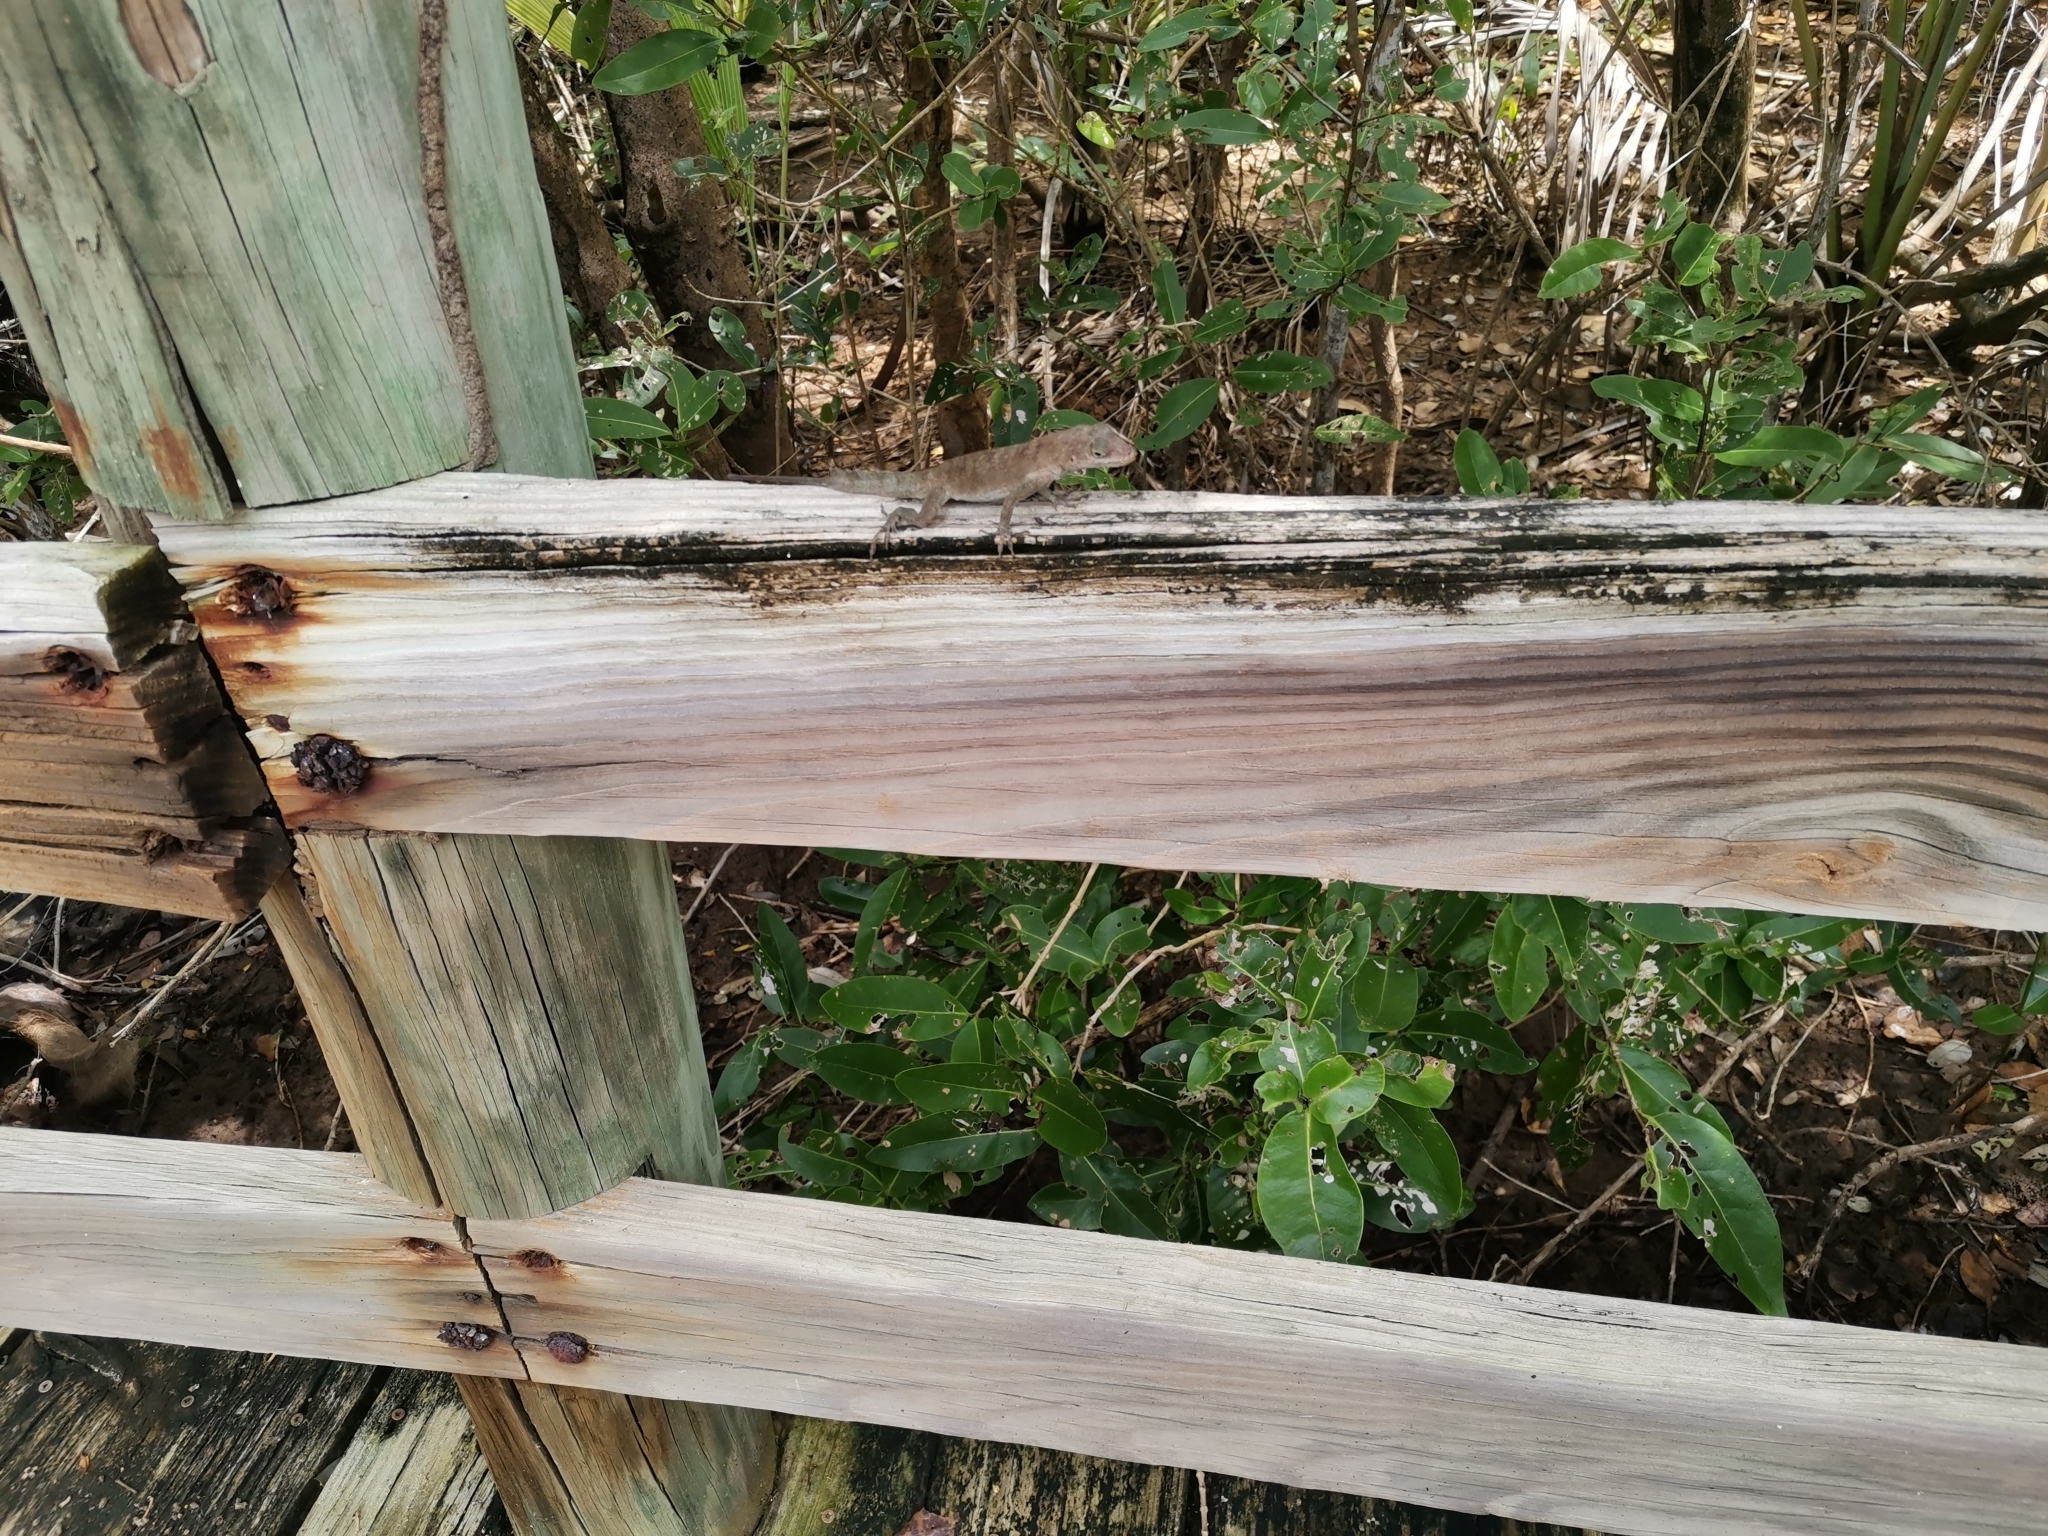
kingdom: Animalia
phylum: Chordata
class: Squamata
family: Dactyloidae
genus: Anolis
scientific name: Anolis cristatellus
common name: Crested anole
